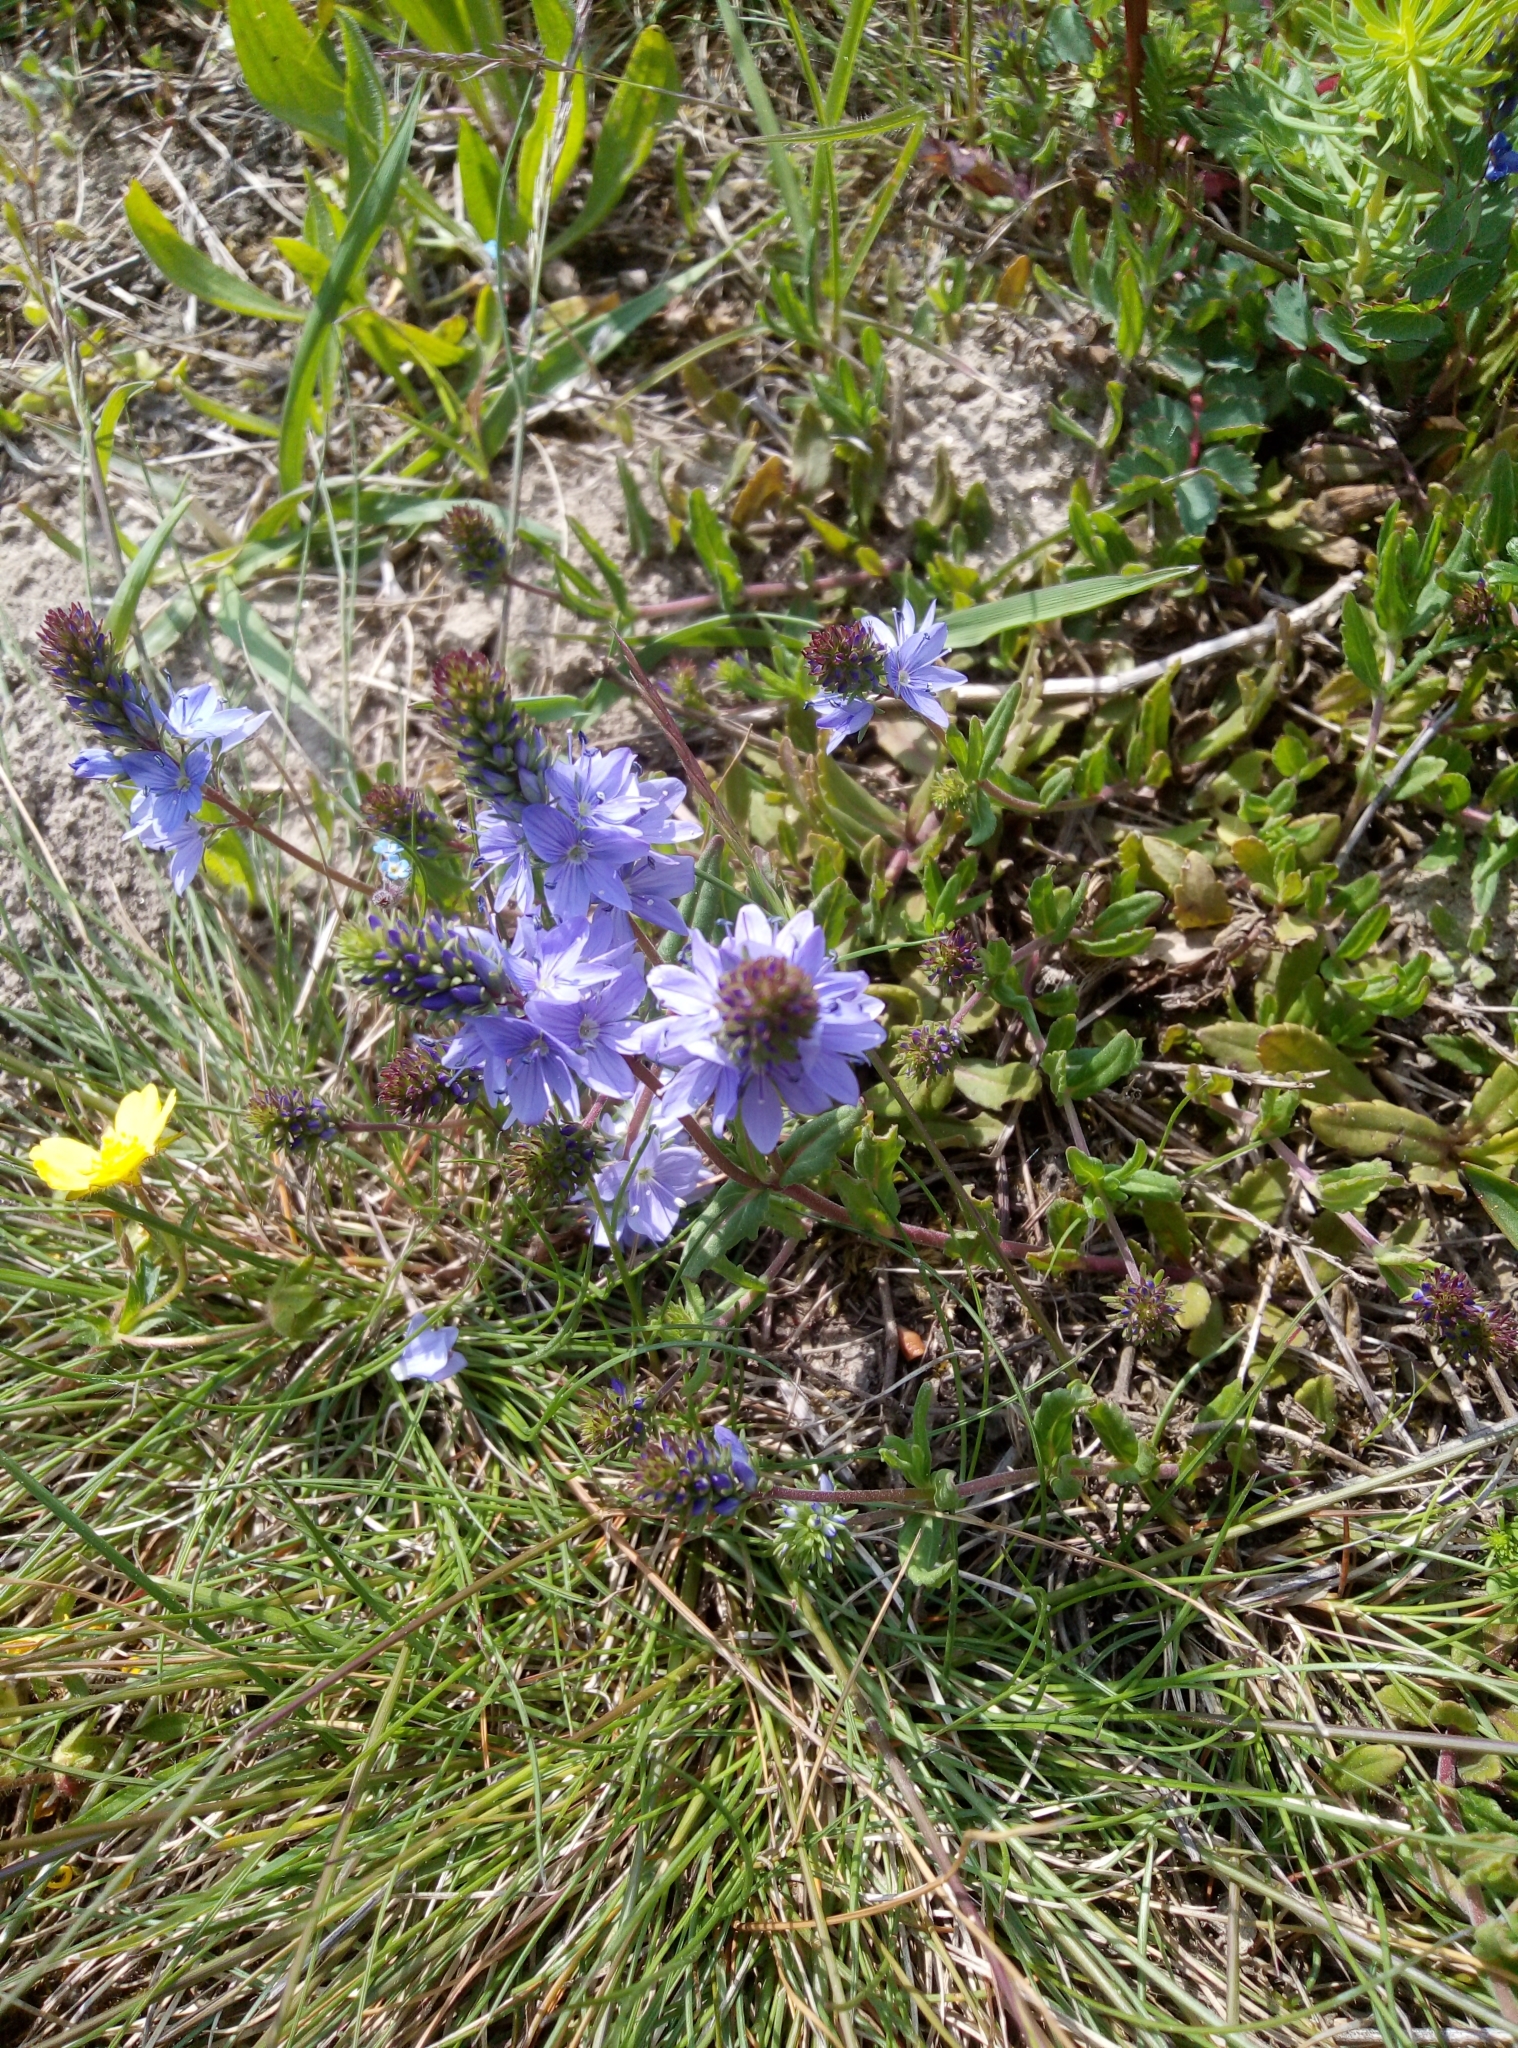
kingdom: Plantae
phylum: Tracheophyta
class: Magnoliopsida
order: Lamiales
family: Plantaginaceae
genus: Veronica
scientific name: Veronica prostrata
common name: Prostrate speedwell
